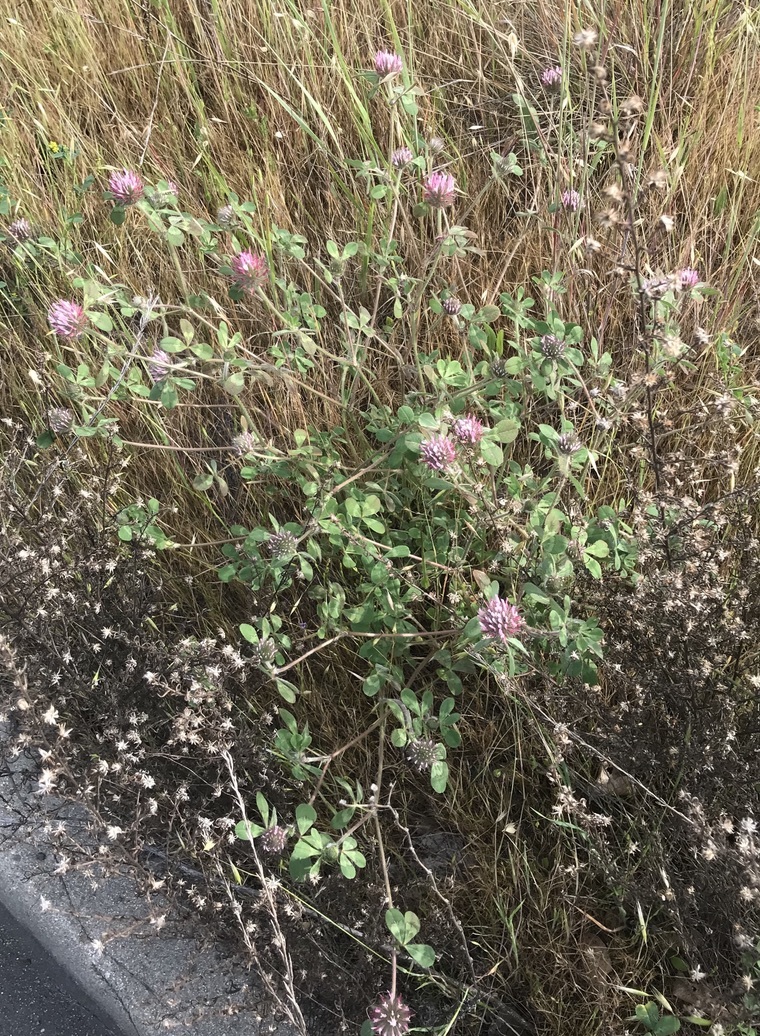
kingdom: Plantae
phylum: Tracheophyta
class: Magnoliopsida
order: Fabales
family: Fabaceae
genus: Trifolium
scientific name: Trifolium hirtum
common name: Rose clover
